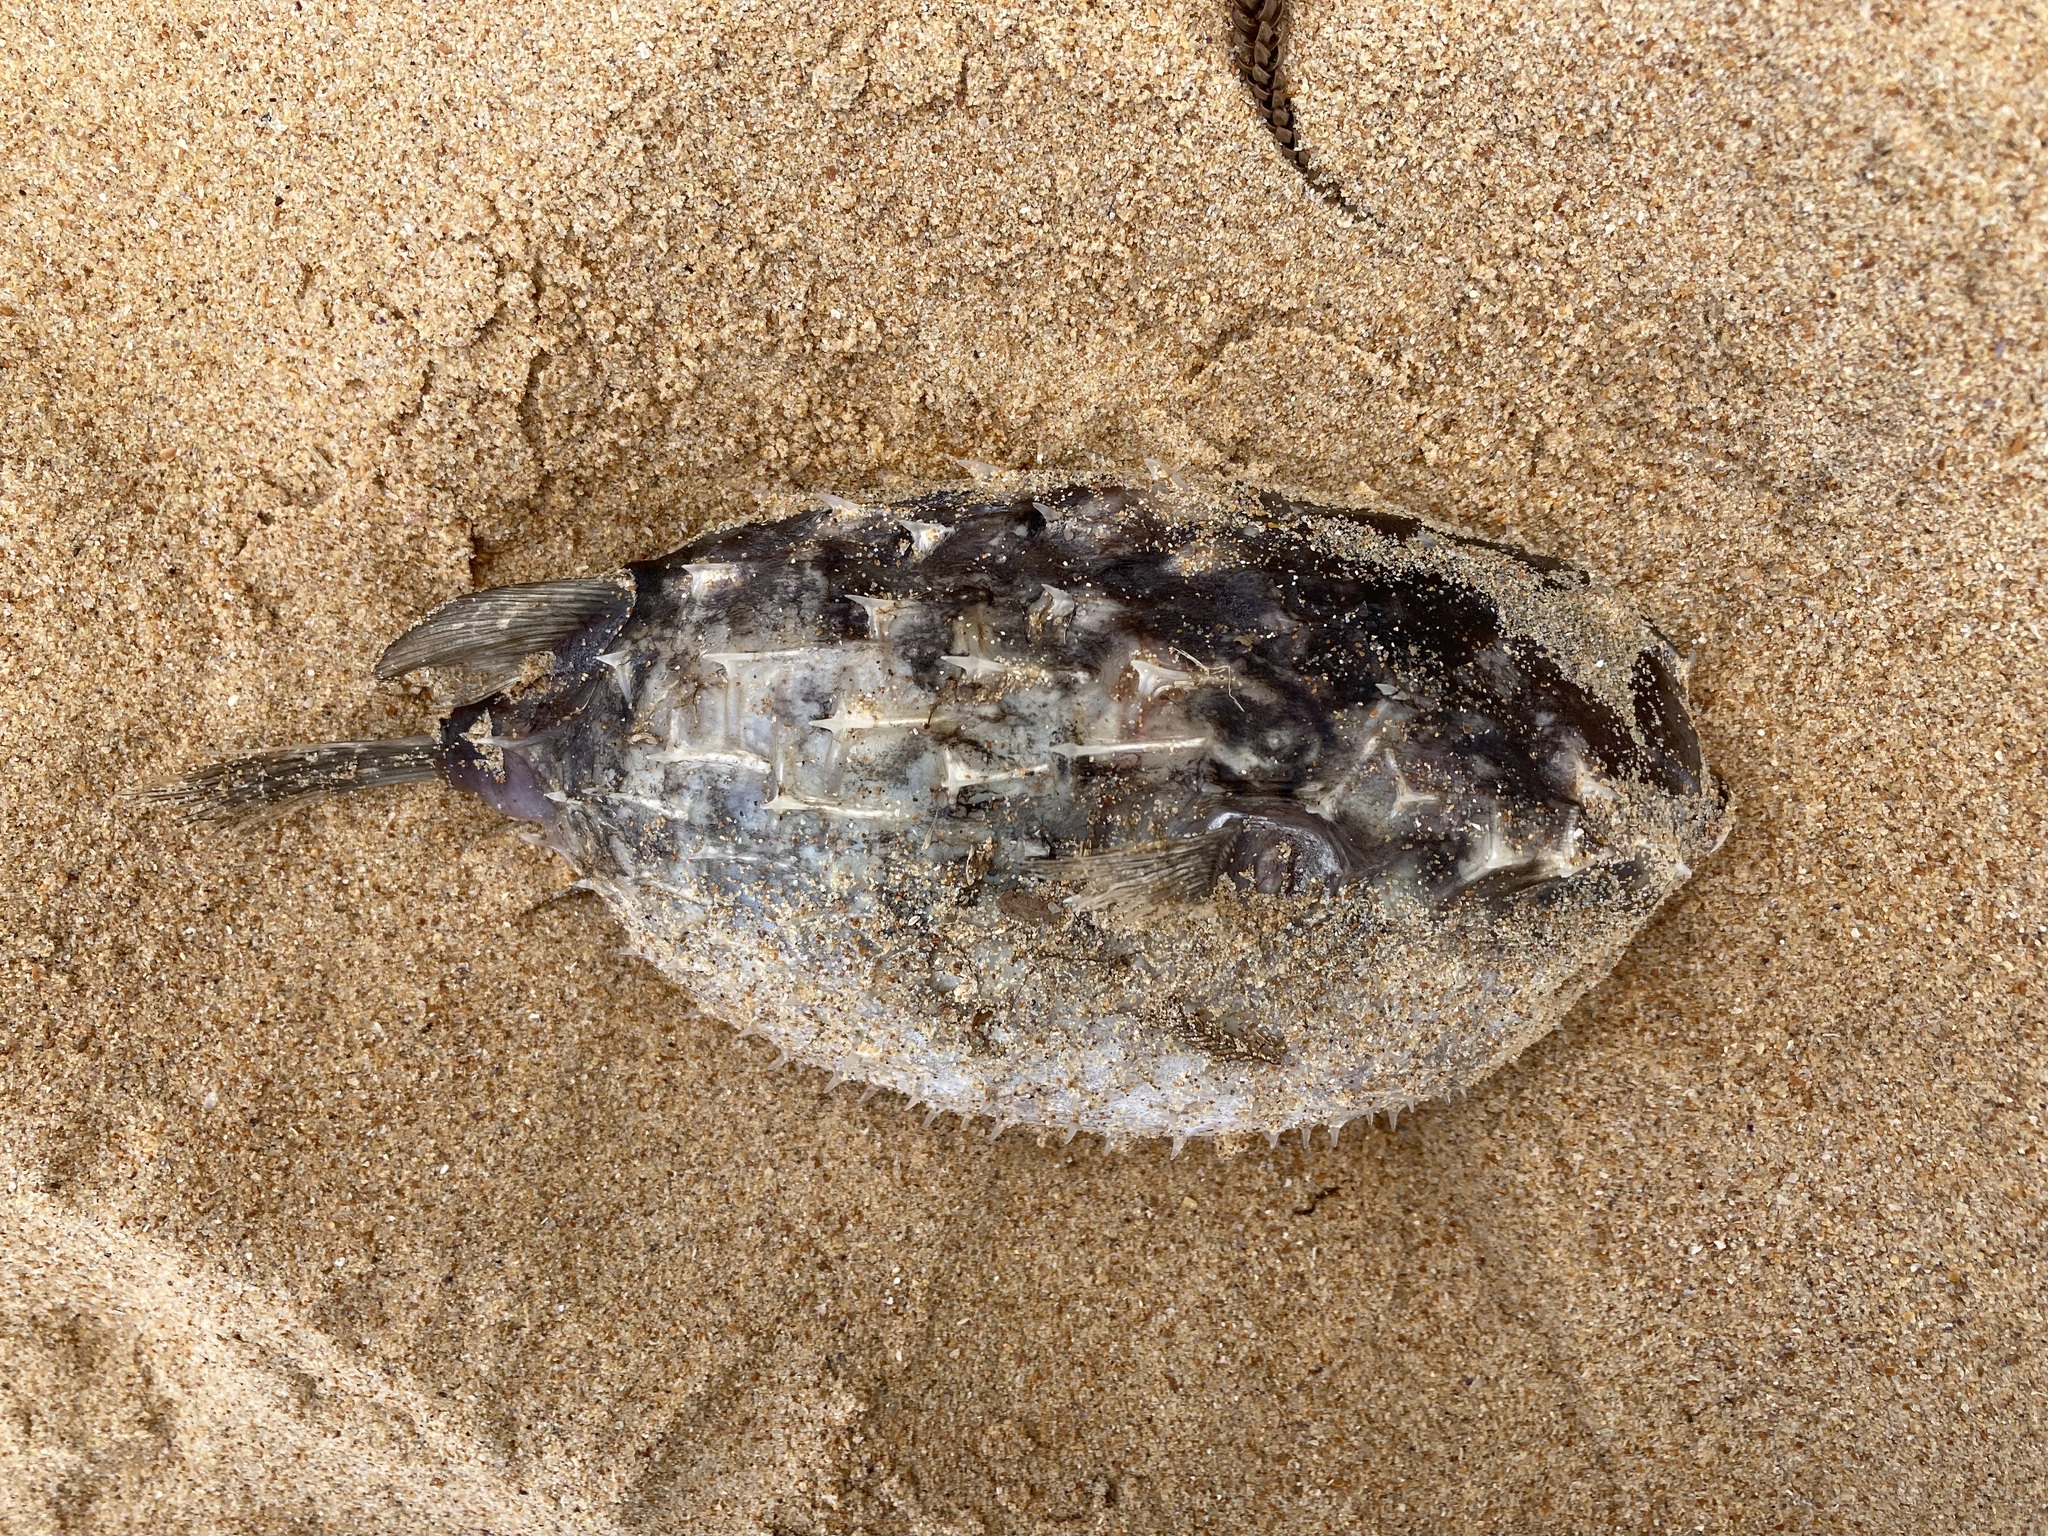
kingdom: Animalia
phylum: Chordata
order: Tetraodontiformes
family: Diodontidae
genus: Allomycterus
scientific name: Allomycterus pilatus
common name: No common name
